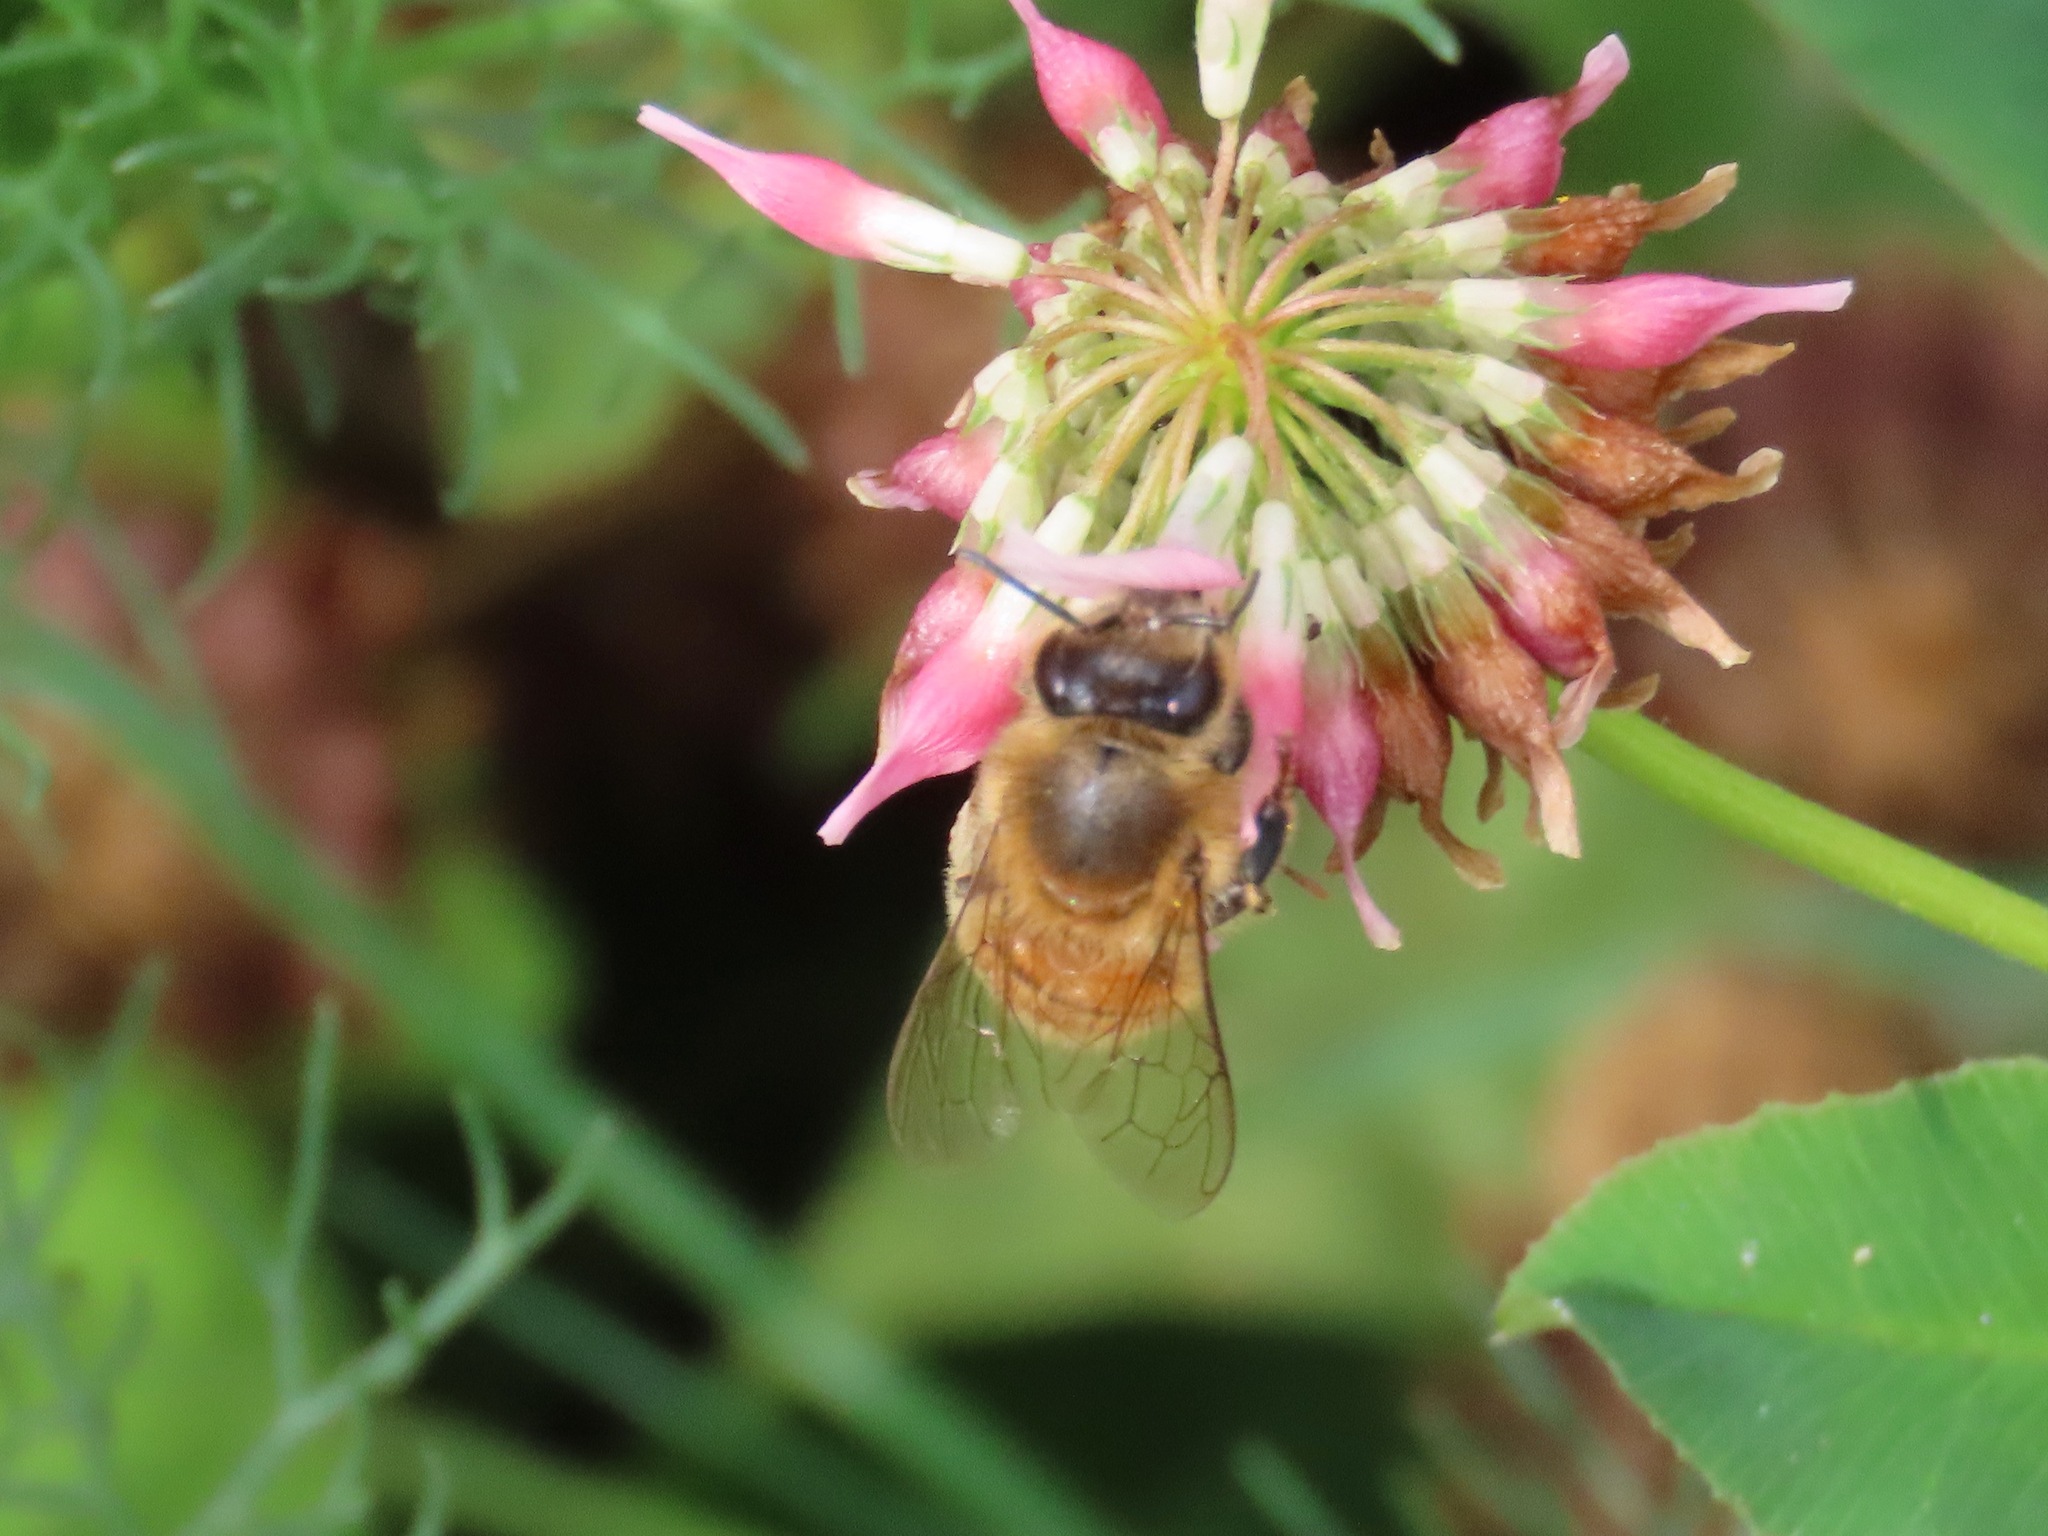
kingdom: Animalia
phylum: Arthropoda
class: Insecta
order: Hymenoptera
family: Apidae
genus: Apis
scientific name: Apis mellifera
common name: Honey bee
